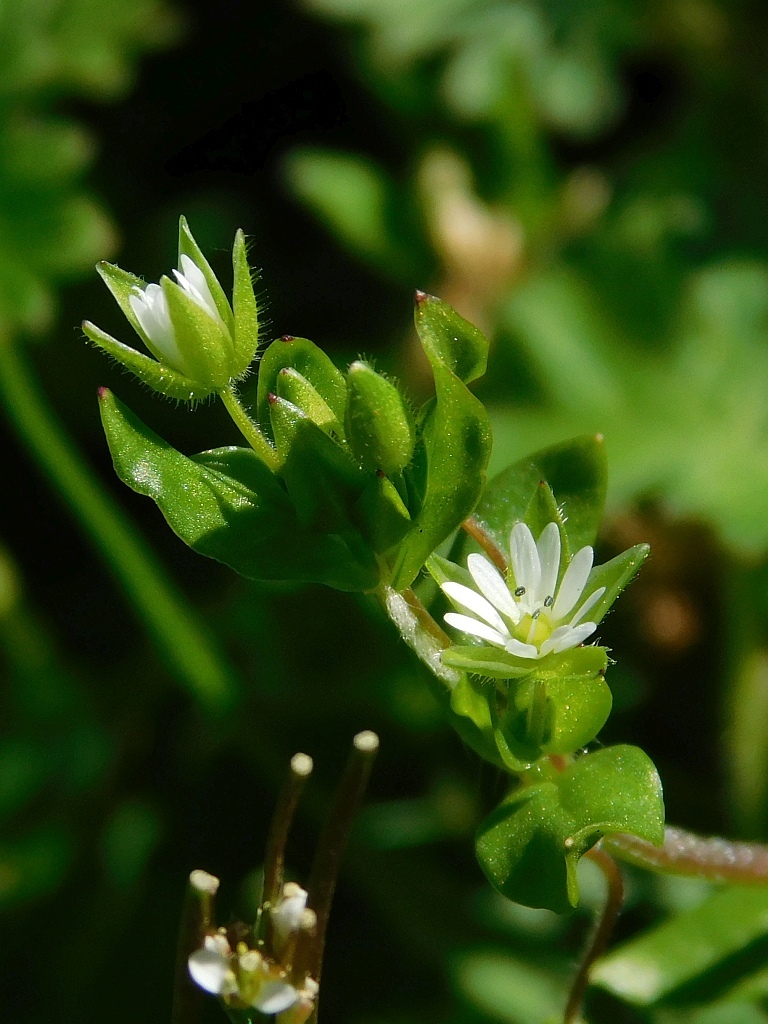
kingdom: Plantae
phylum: Tracheophyta
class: Magnoliopsida
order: Caryophyllales
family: Caryophyllaceae
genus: Stellaria
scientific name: Stellaria media
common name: Common chickweed
